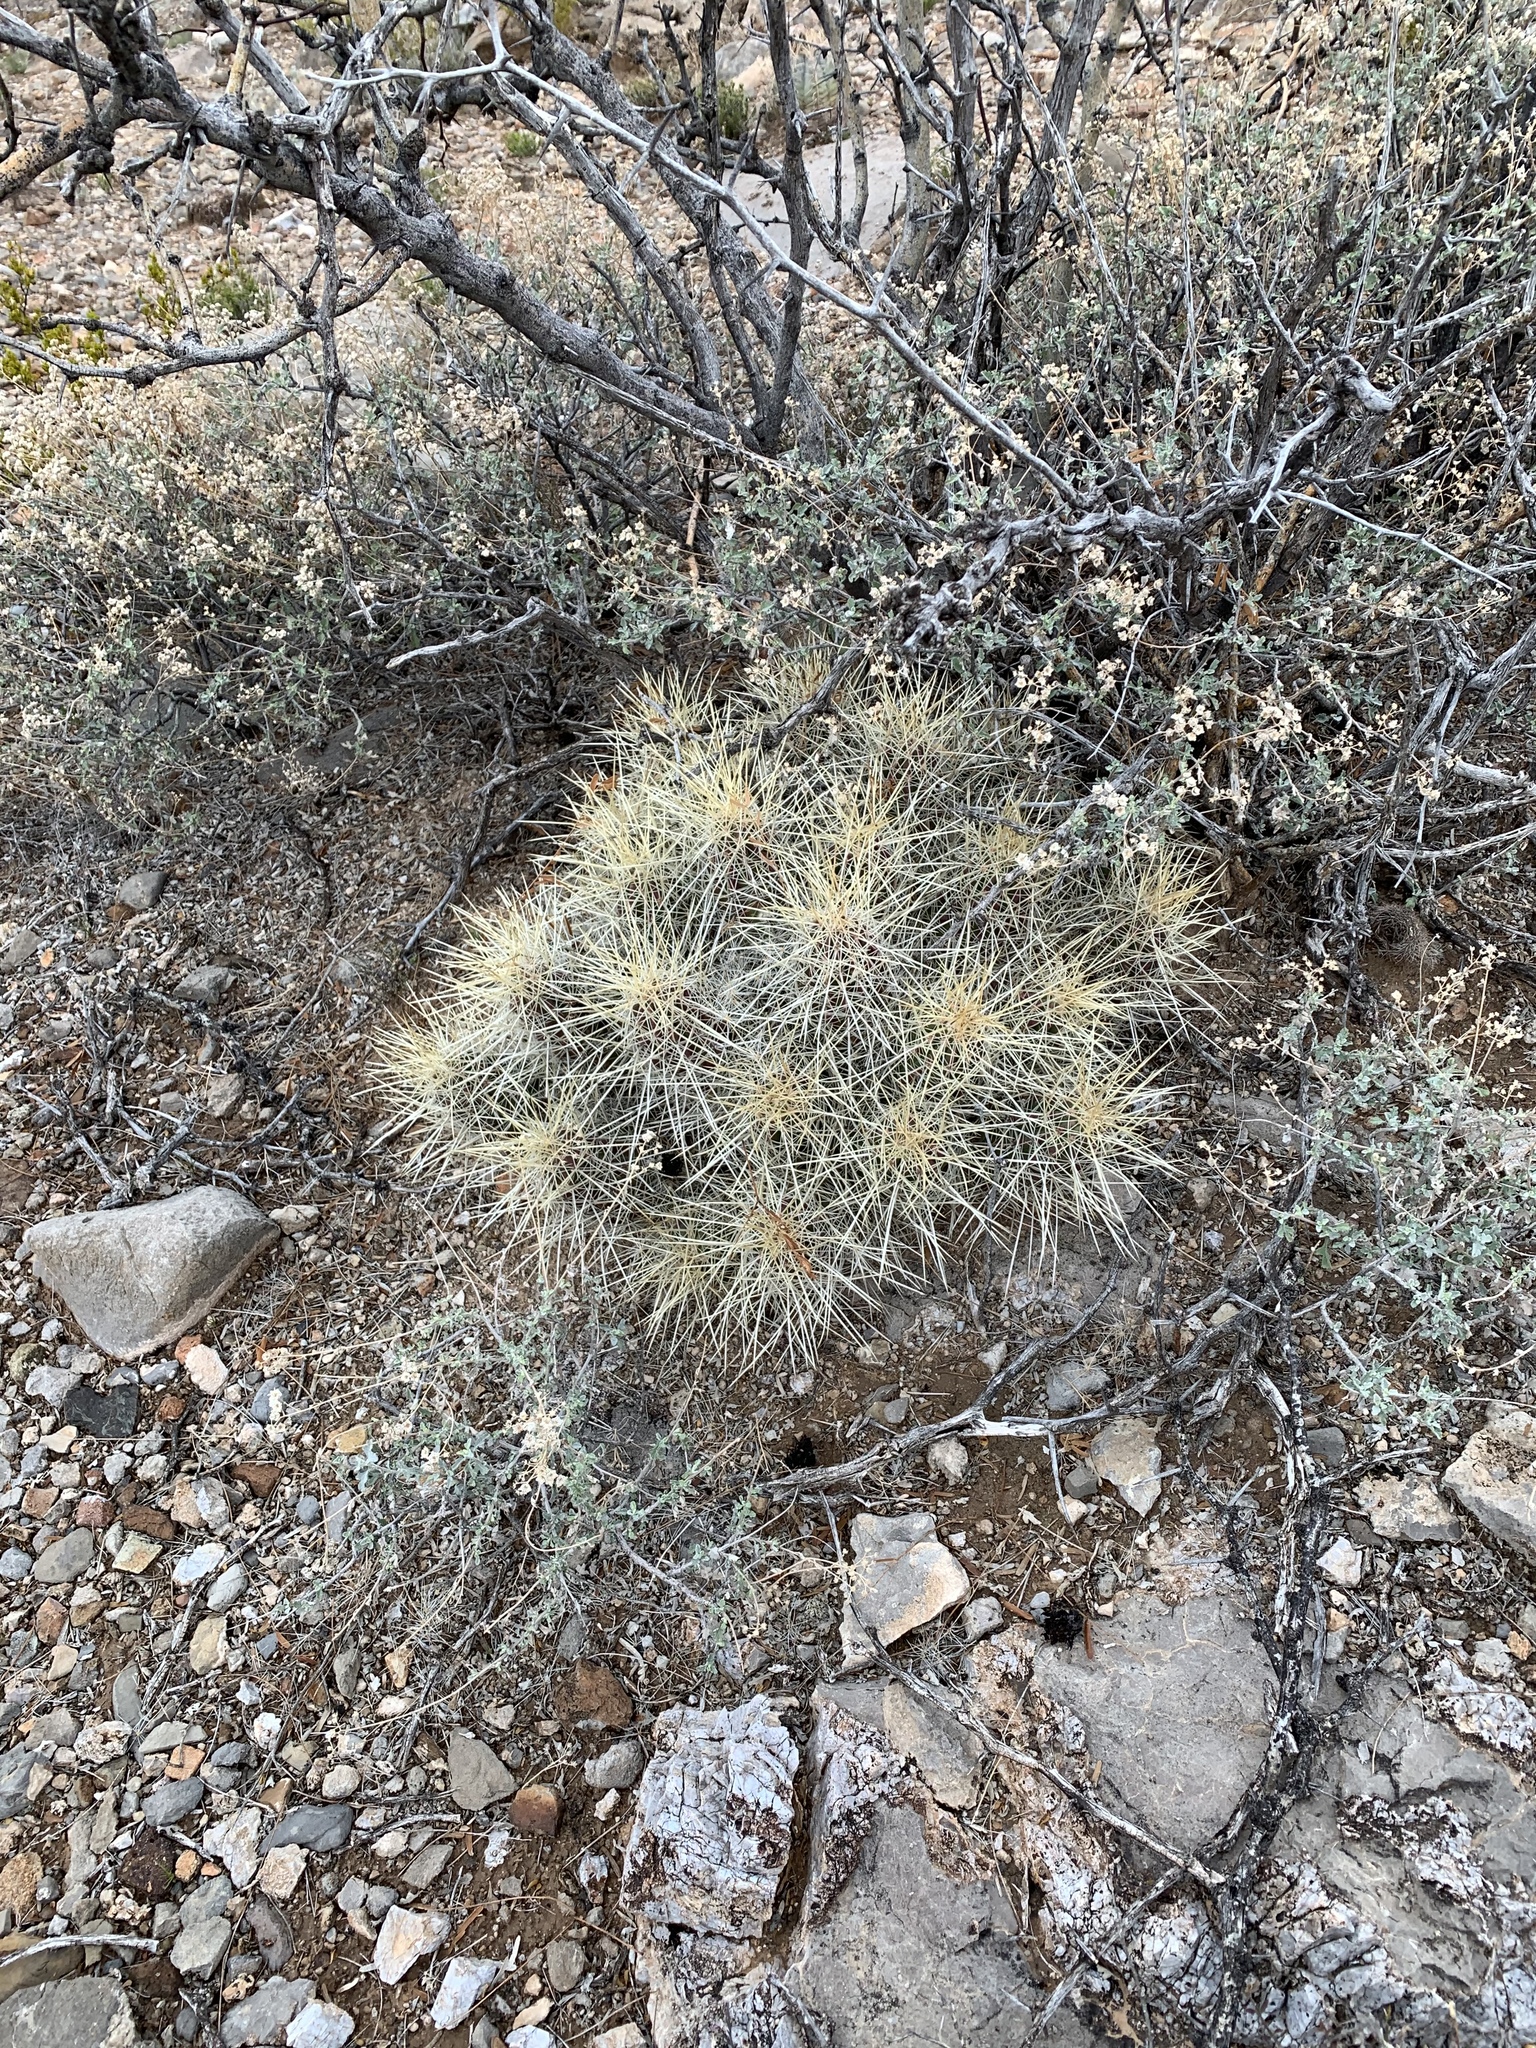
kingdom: Plantae
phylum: Tracheophyta
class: Magnoliopsida
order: Caryophyllales
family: Cactaceae
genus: Echinocereus
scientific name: Echinocereus stramineus
